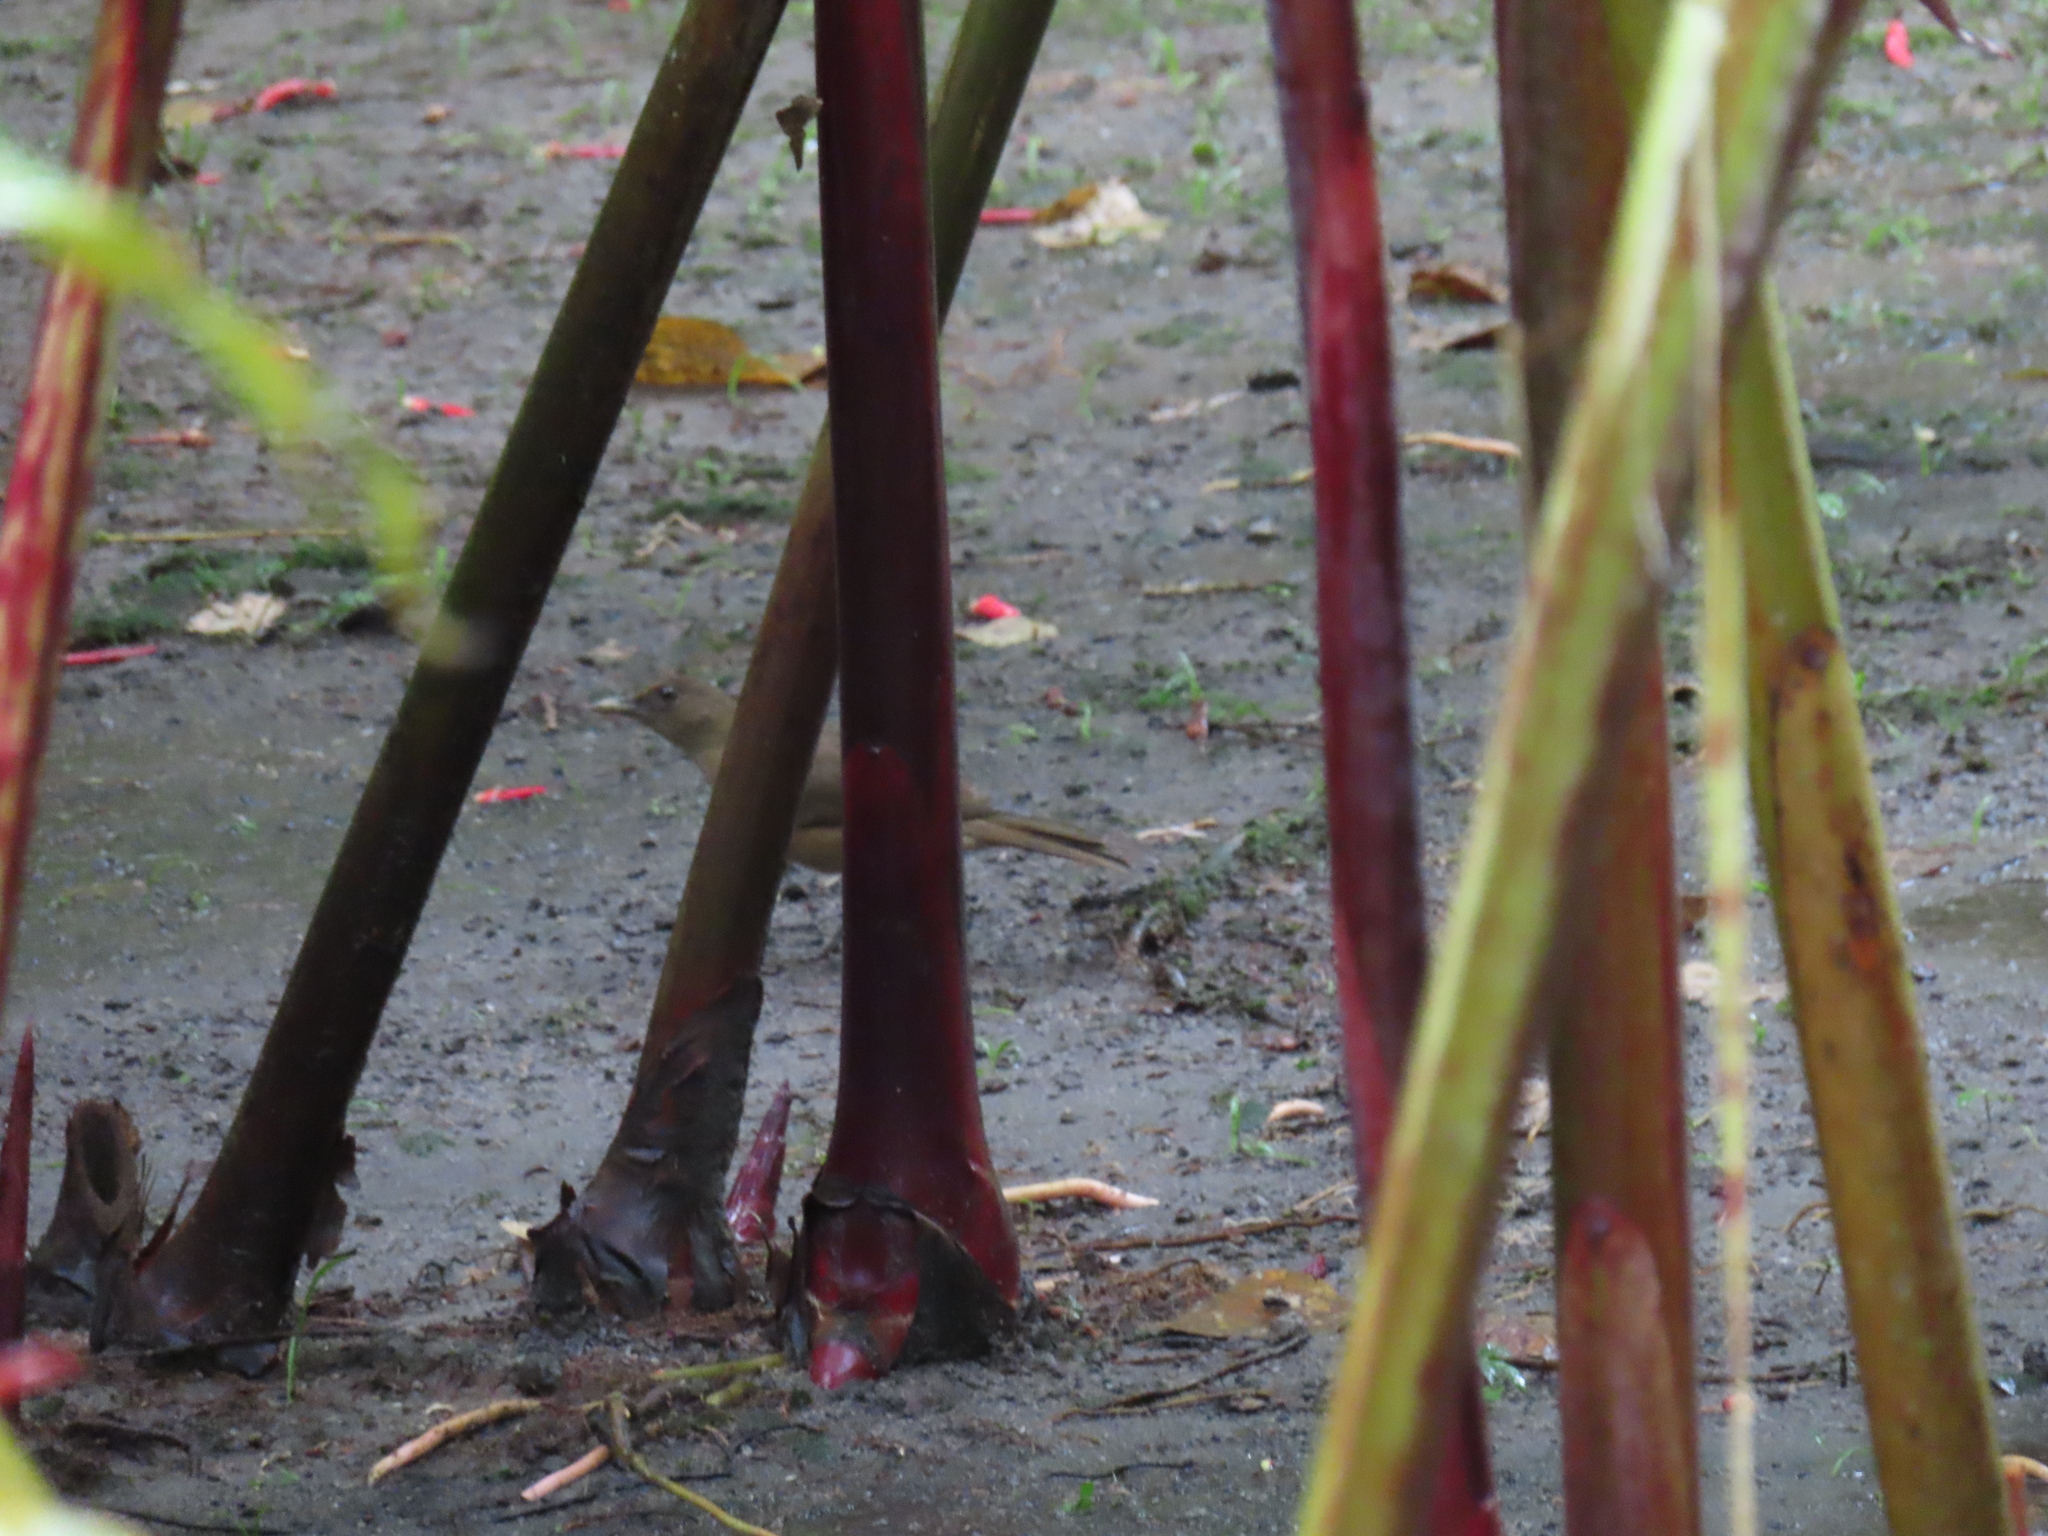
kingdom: Animalia
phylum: Chordata
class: Aves
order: Passeriformes
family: Turdidae
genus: Turdus
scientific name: Turdus grayi
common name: Clay-colored thrush
